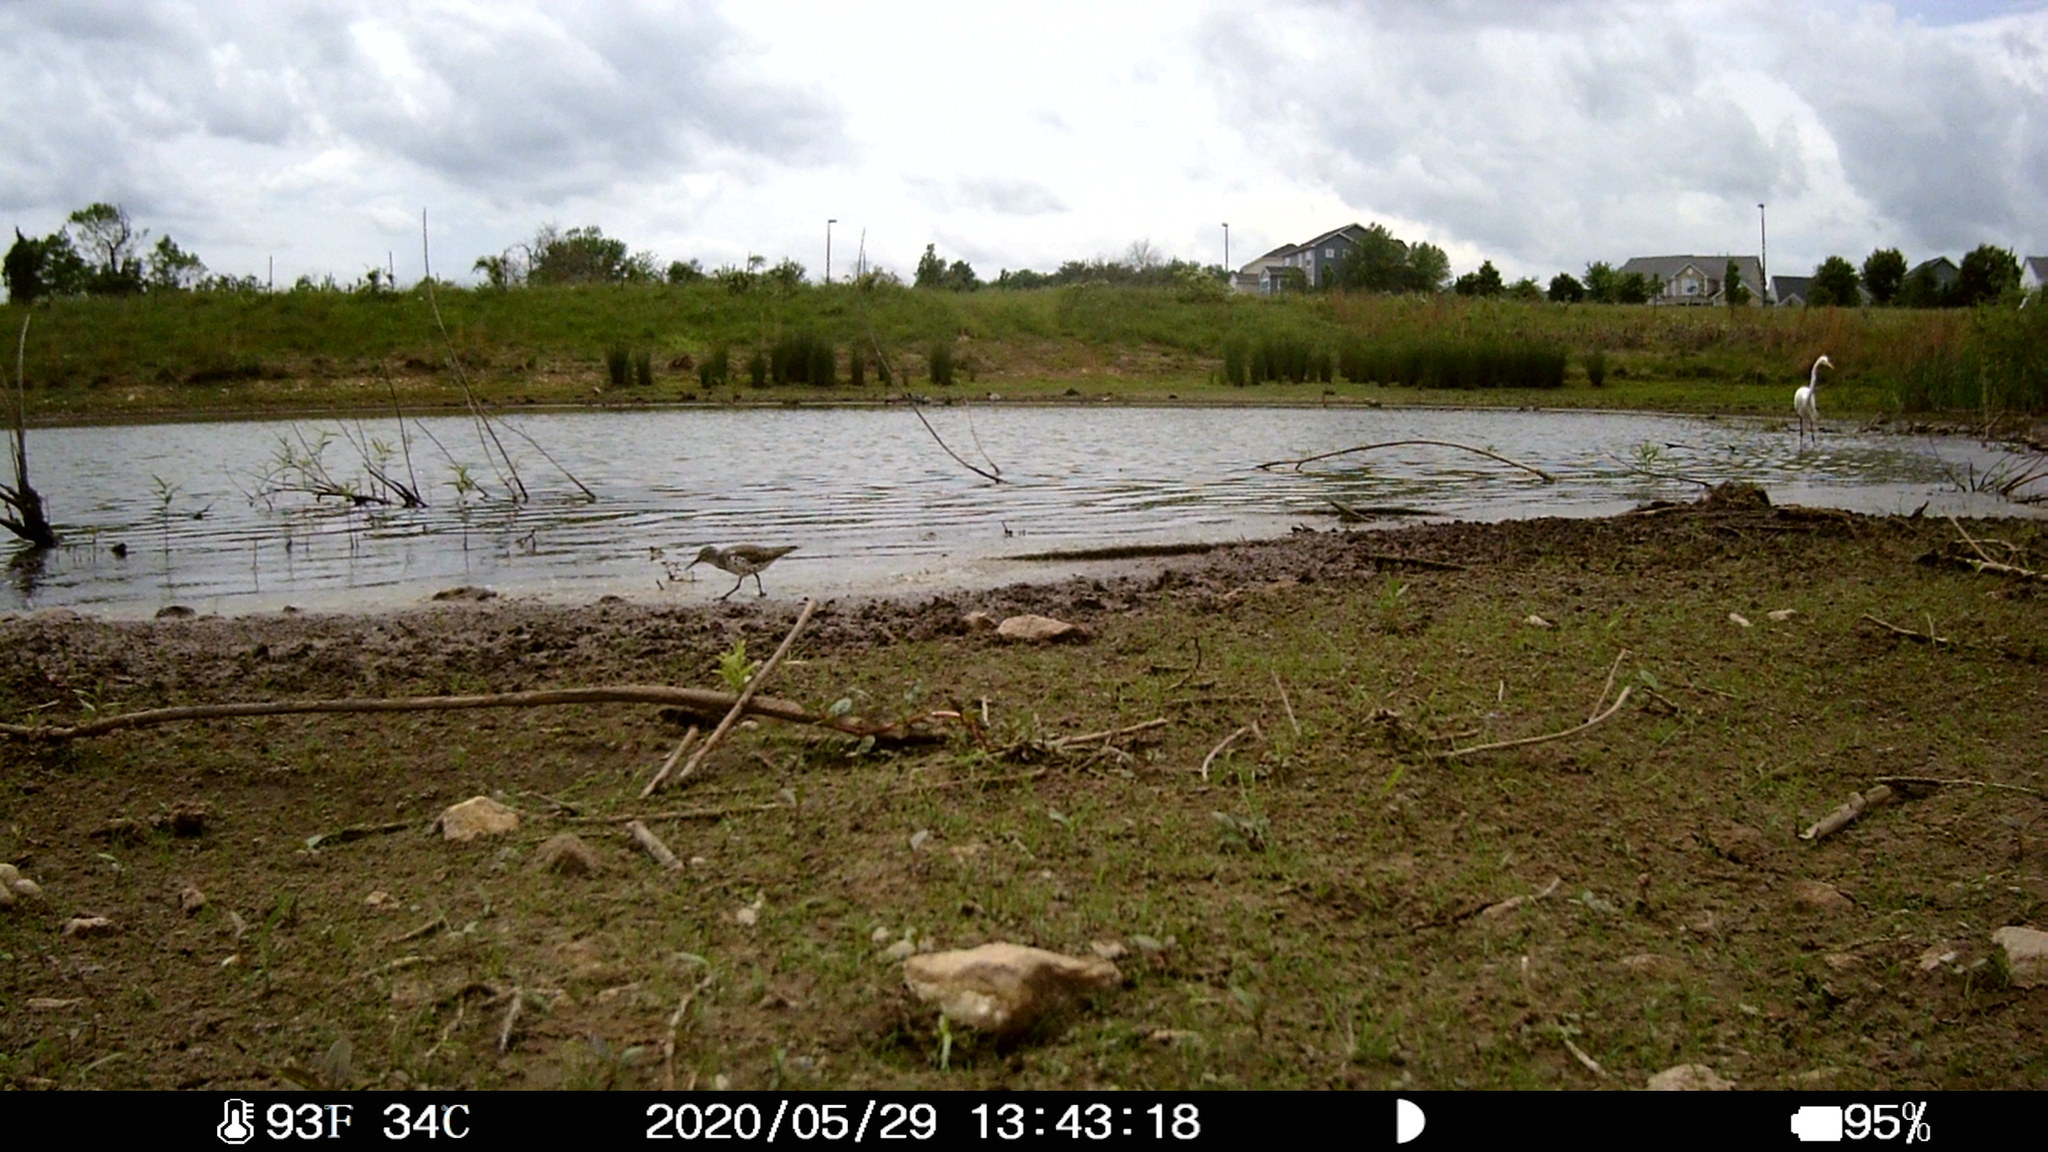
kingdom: Animalia
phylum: Chordata
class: Aves
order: Charadriiformes
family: Scolopacidae
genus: Actitis
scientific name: Actitis macularius
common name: Spotted sandpiper
